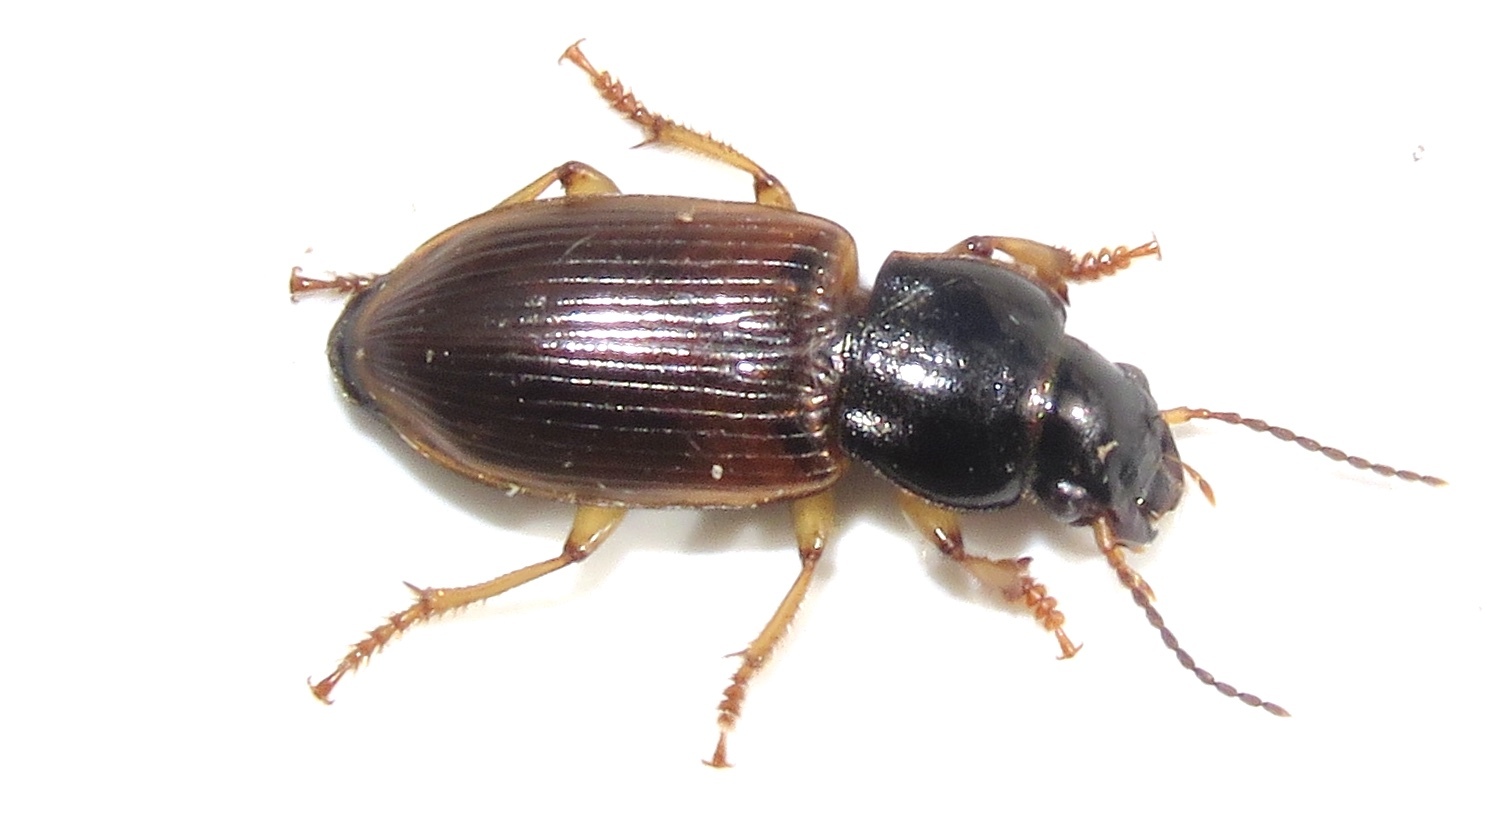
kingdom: Animalia
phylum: Arthropoda
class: Insecta
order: Coleoptera
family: Carabidae
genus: Anisodactylus
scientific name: Anisodactylus sanctaecrucis
